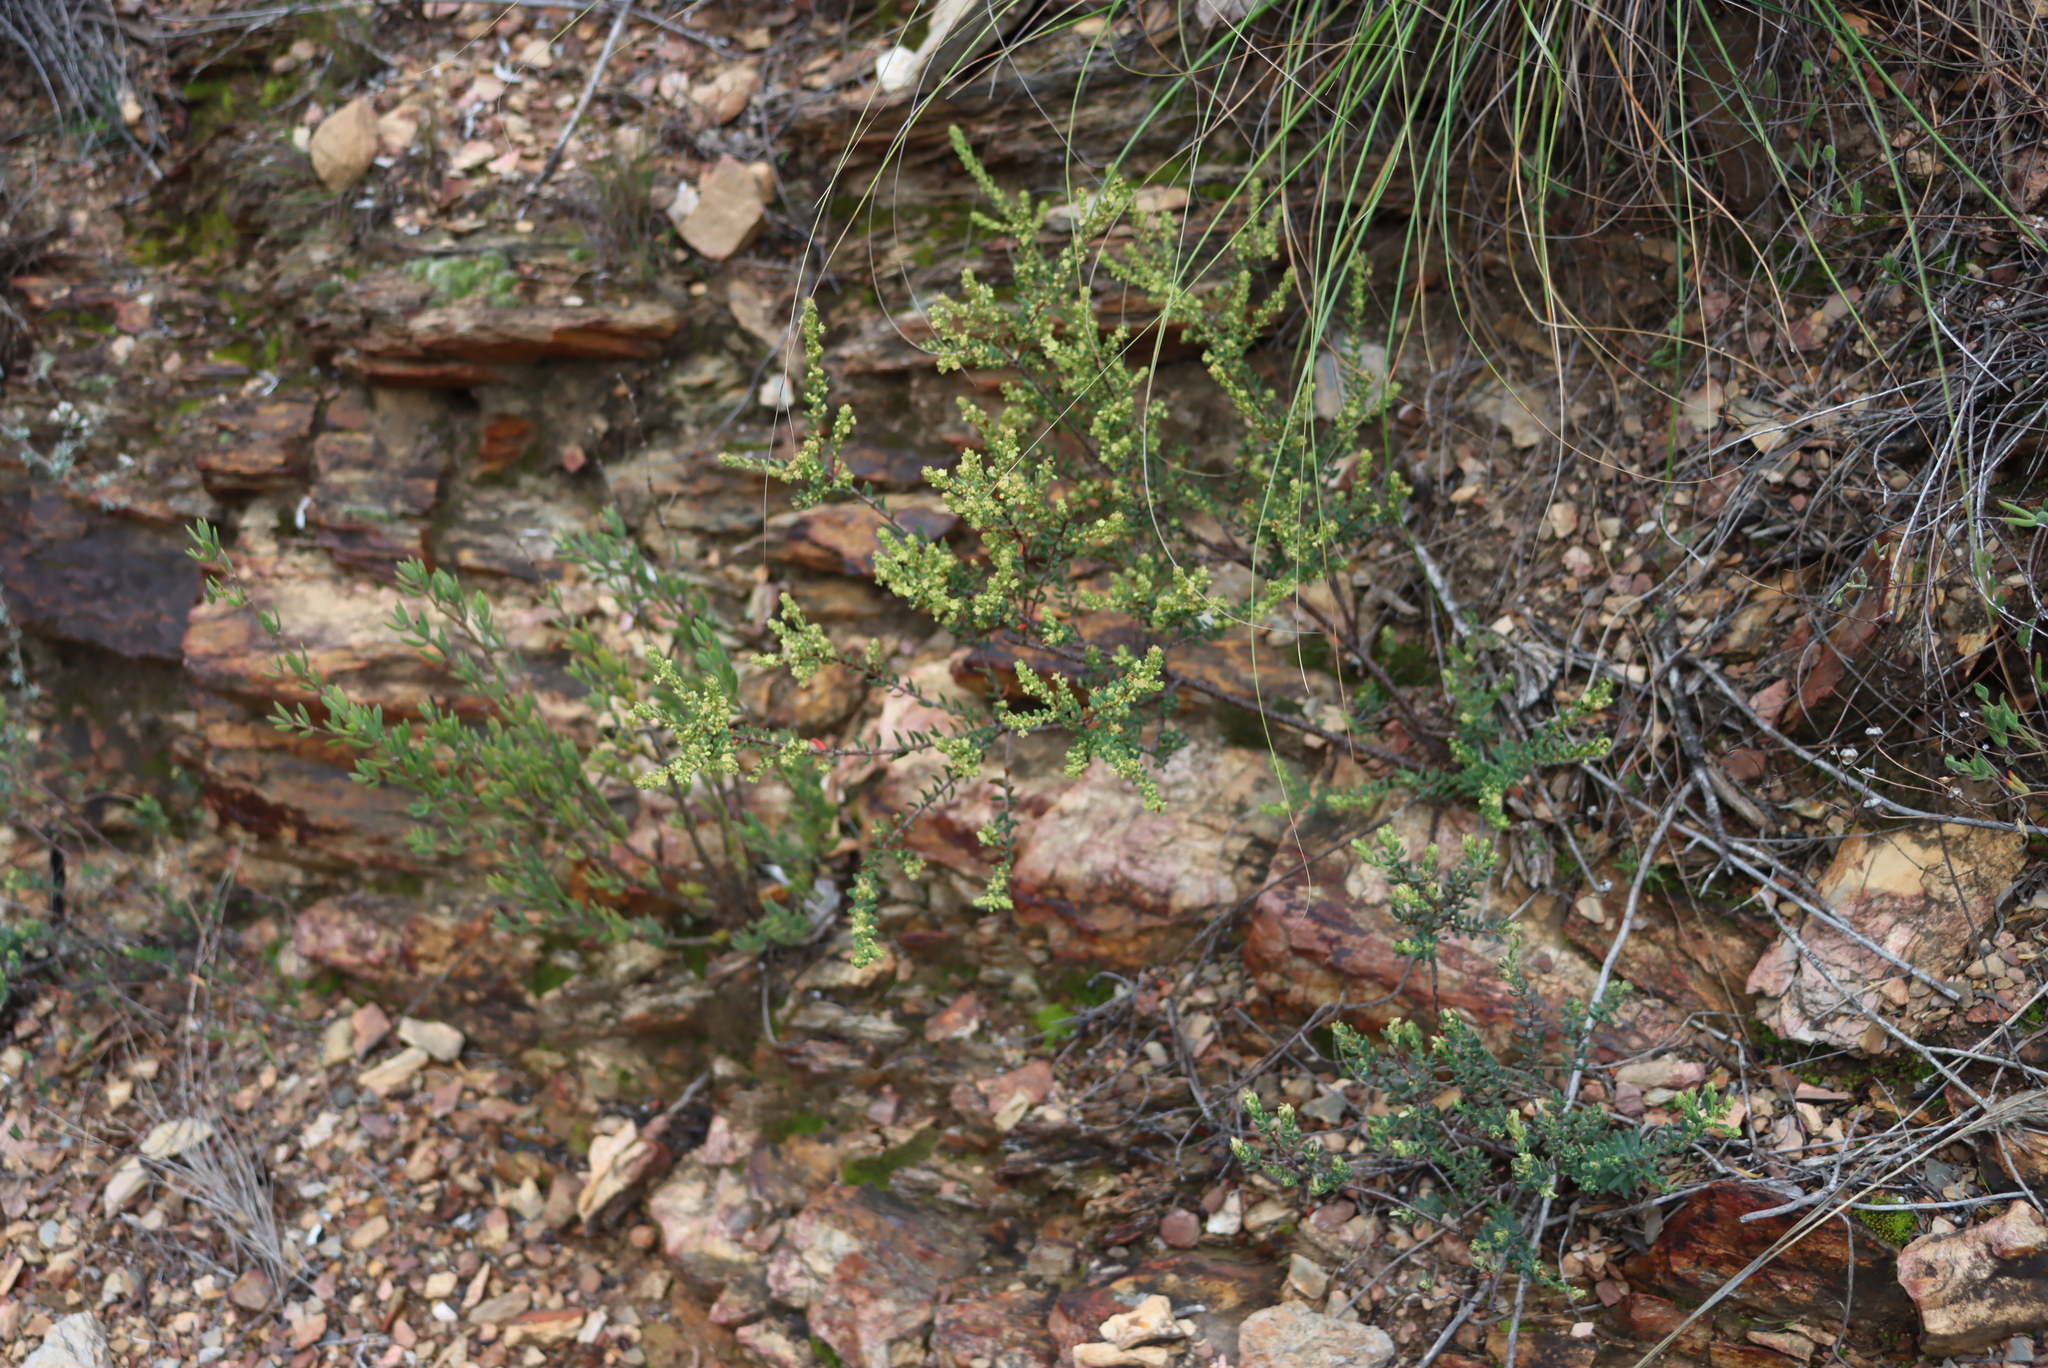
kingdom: Plantae
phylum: Tracheophyta
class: Magnoliopsida
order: Malpighiales
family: Peraceae
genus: Clutia
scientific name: Clutia alaternoides
